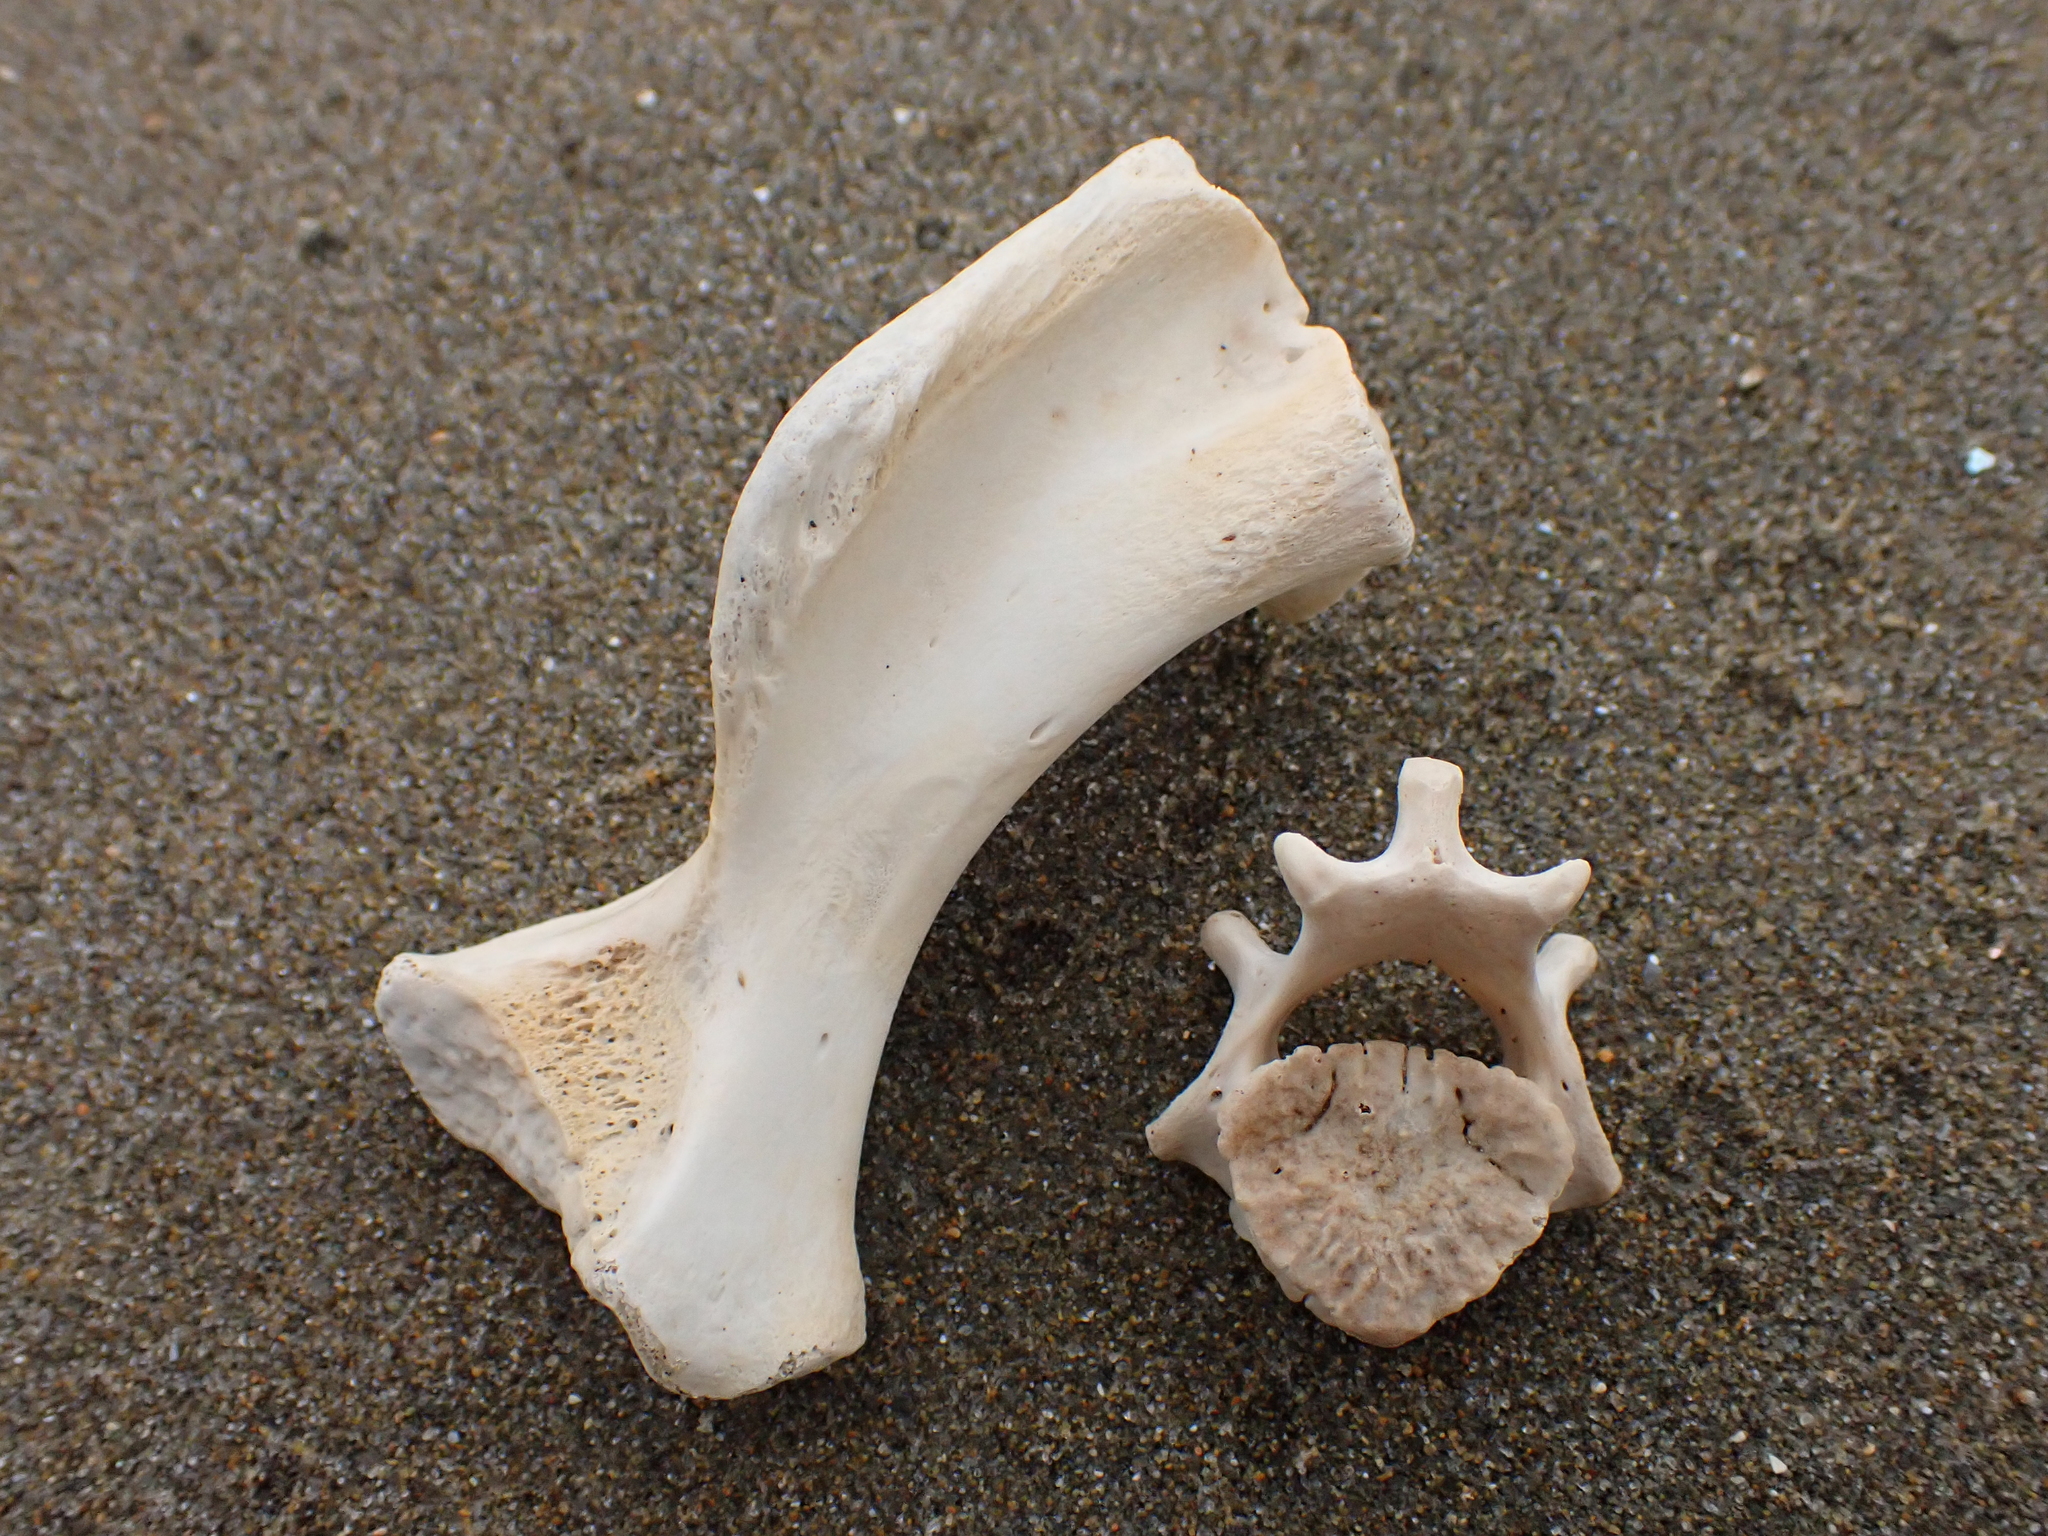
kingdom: Animalia
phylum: Chordata
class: Mammalia
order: Carnivora
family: Otariidae
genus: Arctocephalus
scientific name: Arctocephalus forsteri
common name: New zealand fur seal
